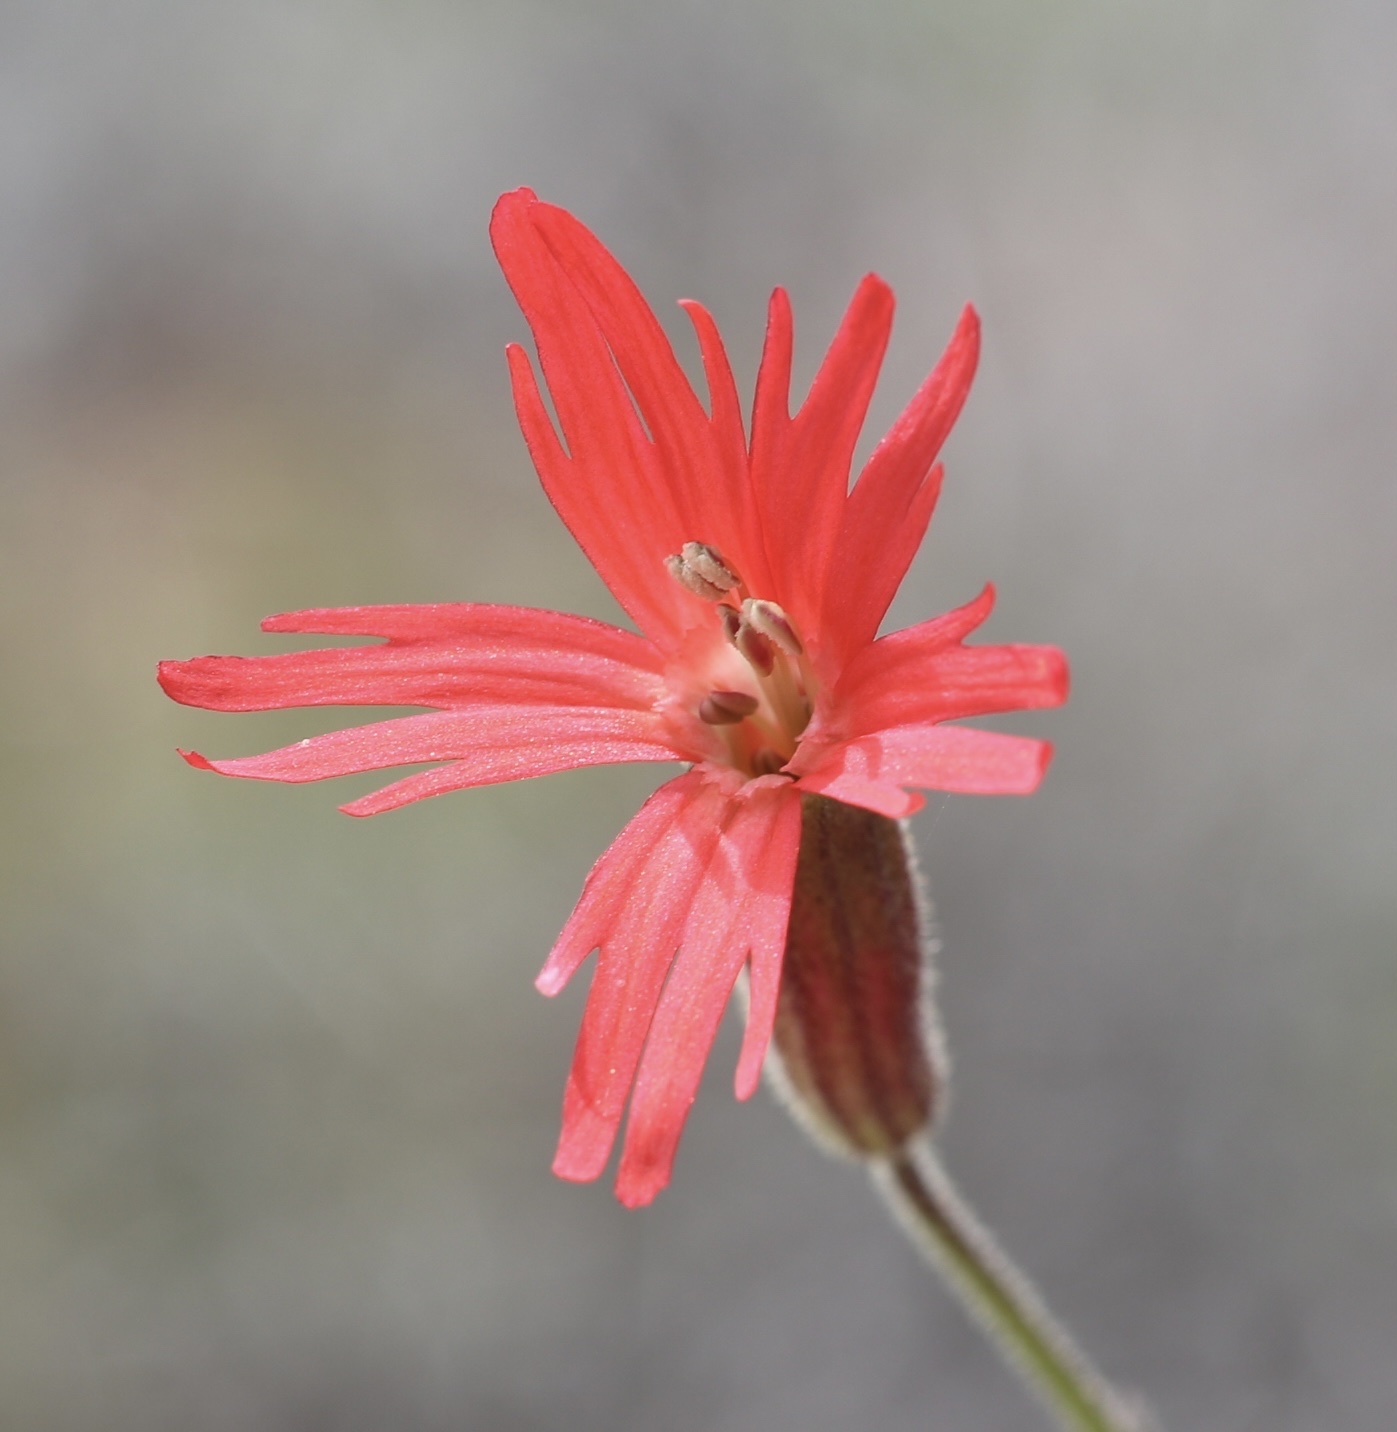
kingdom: Plantae
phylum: Tracheophyta
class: Magnoliopsida
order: Caryophyllales
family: Caryophyllaceae
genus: Silene
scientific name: Silene laciniata
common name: Indian-pink
